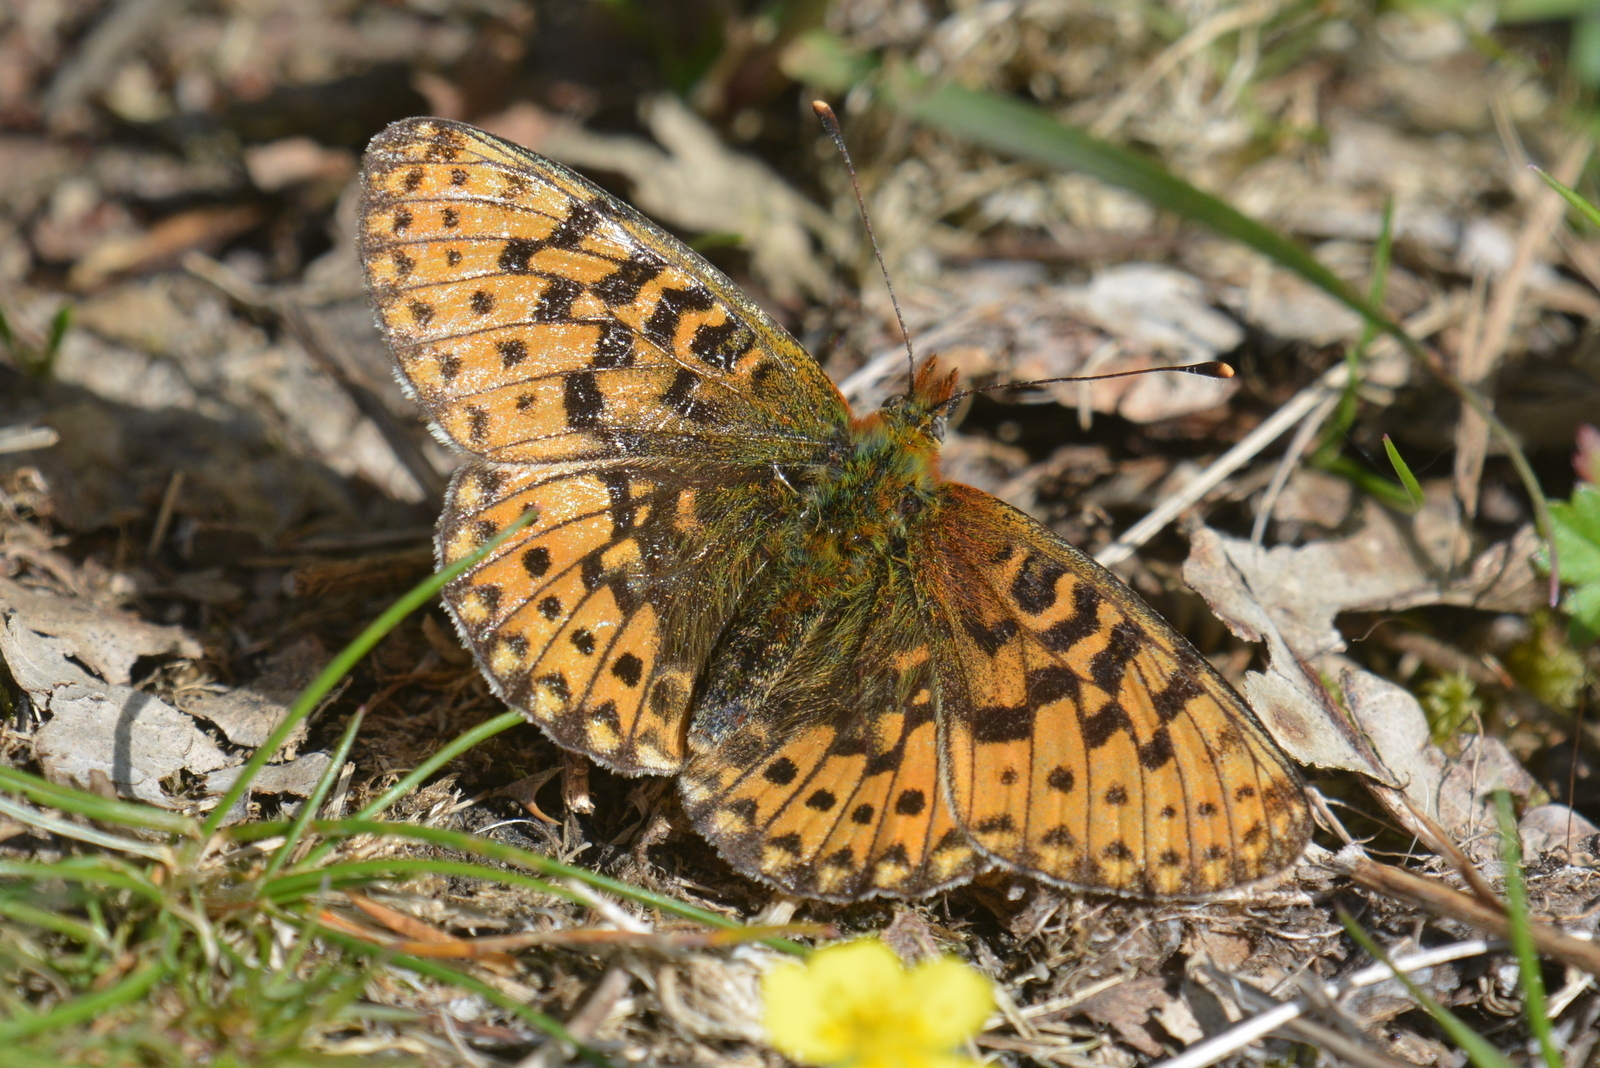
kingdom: Animalia
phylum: Arthropoda
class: Insecta
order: Lepidoptera
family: Nymphalidae
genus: Clossiana
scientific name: Clossiana euphrosyne
